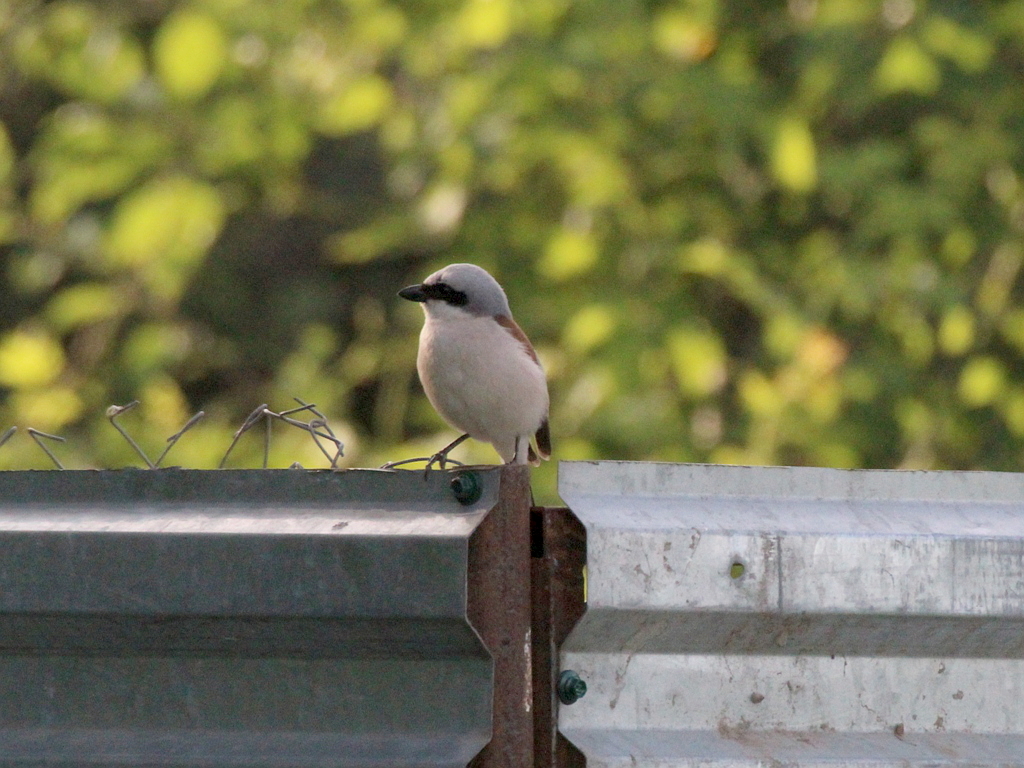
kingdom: Animalia
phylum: Chordata
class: Aves
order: Passeriformes
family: Laniidae
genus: Lanius
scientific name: Lanius collurio
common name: Red-backed shrike
